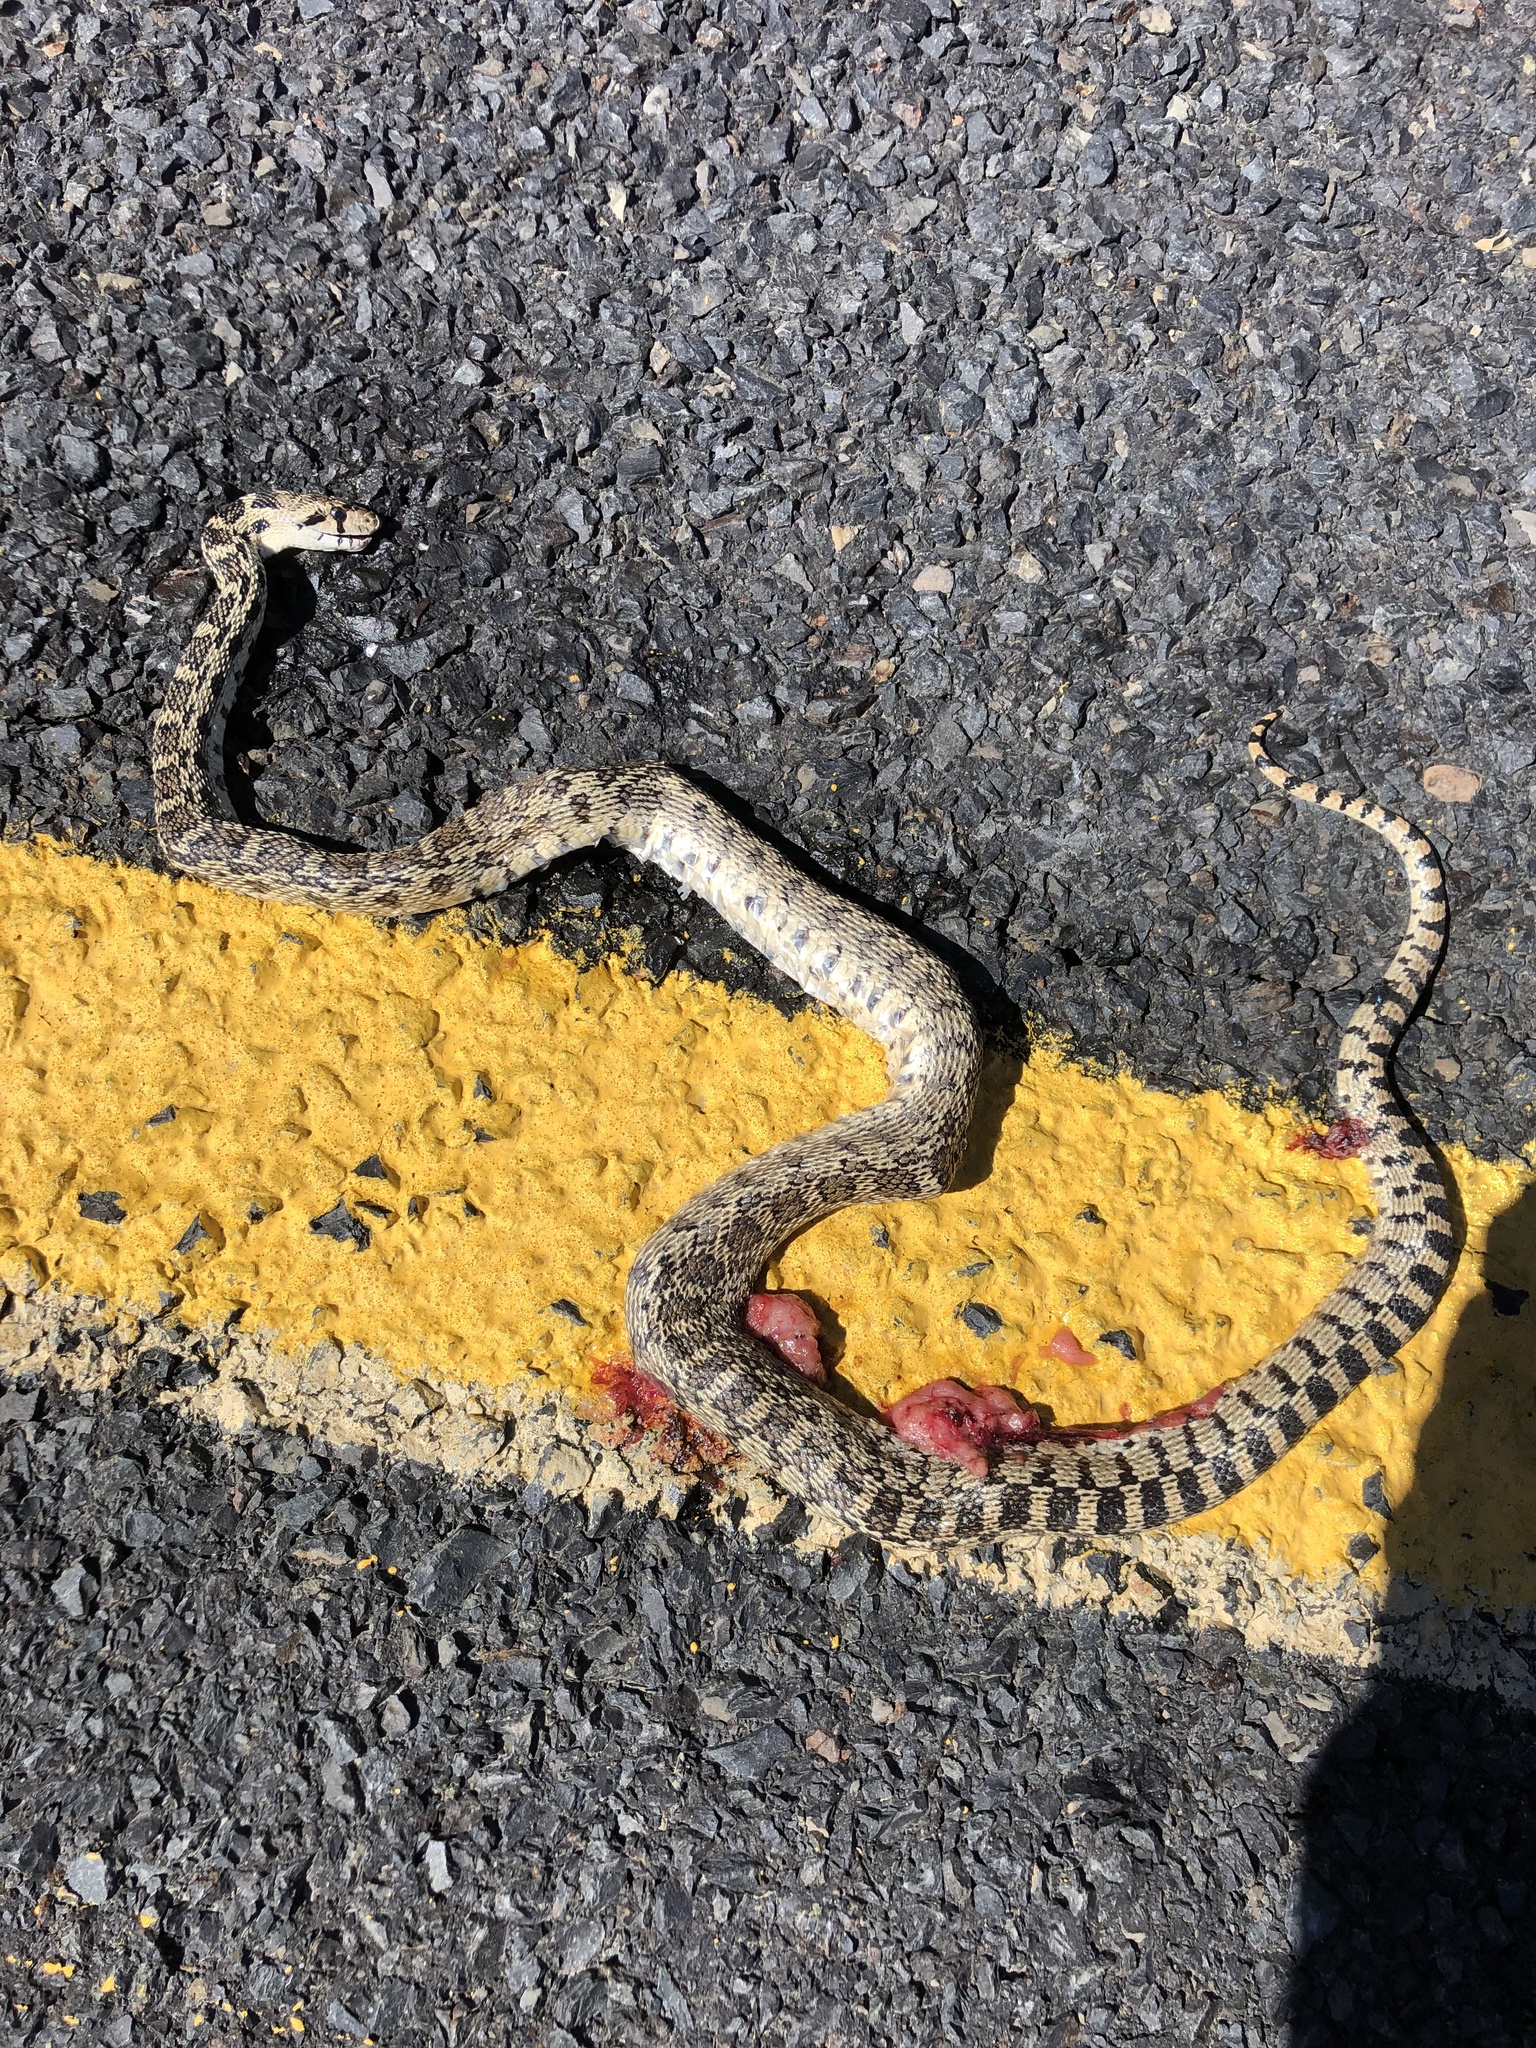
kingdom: Animalia
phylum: Chordata
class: Squamata
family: Colubridae
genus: Pituophis
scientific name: Pituophis catenifer
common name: Gopher snake
